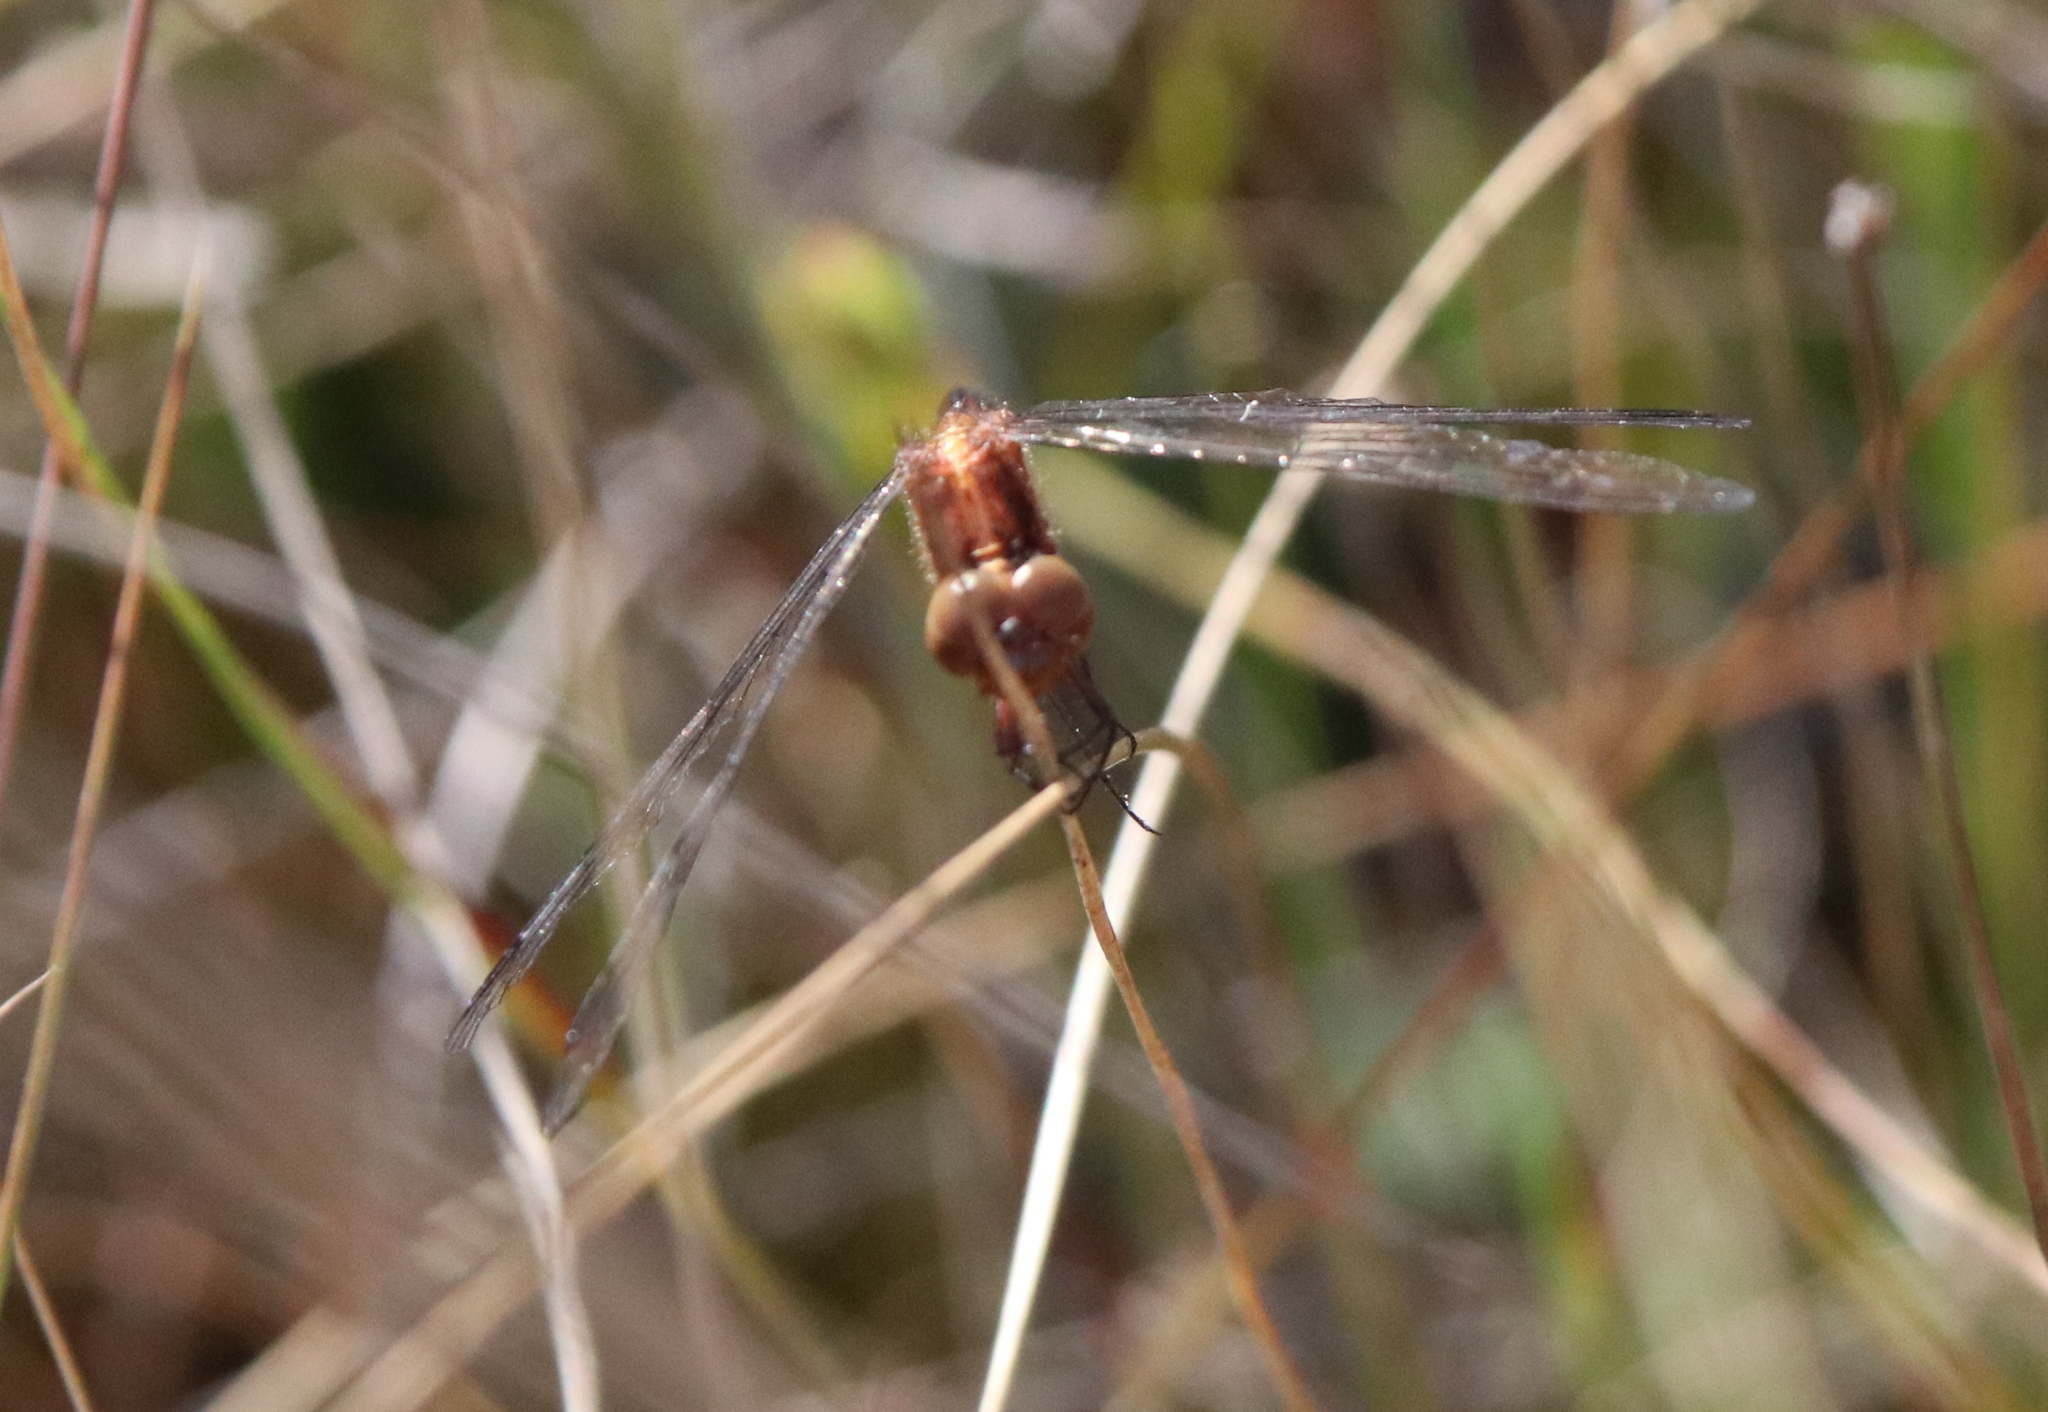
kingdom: Animalia
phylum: Arthropoda
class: Insecta
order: Odonata
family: Libellulidae
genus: Erythrodiplax
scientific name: Erythrodiplax minuscula
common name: Little blue dragonlet
